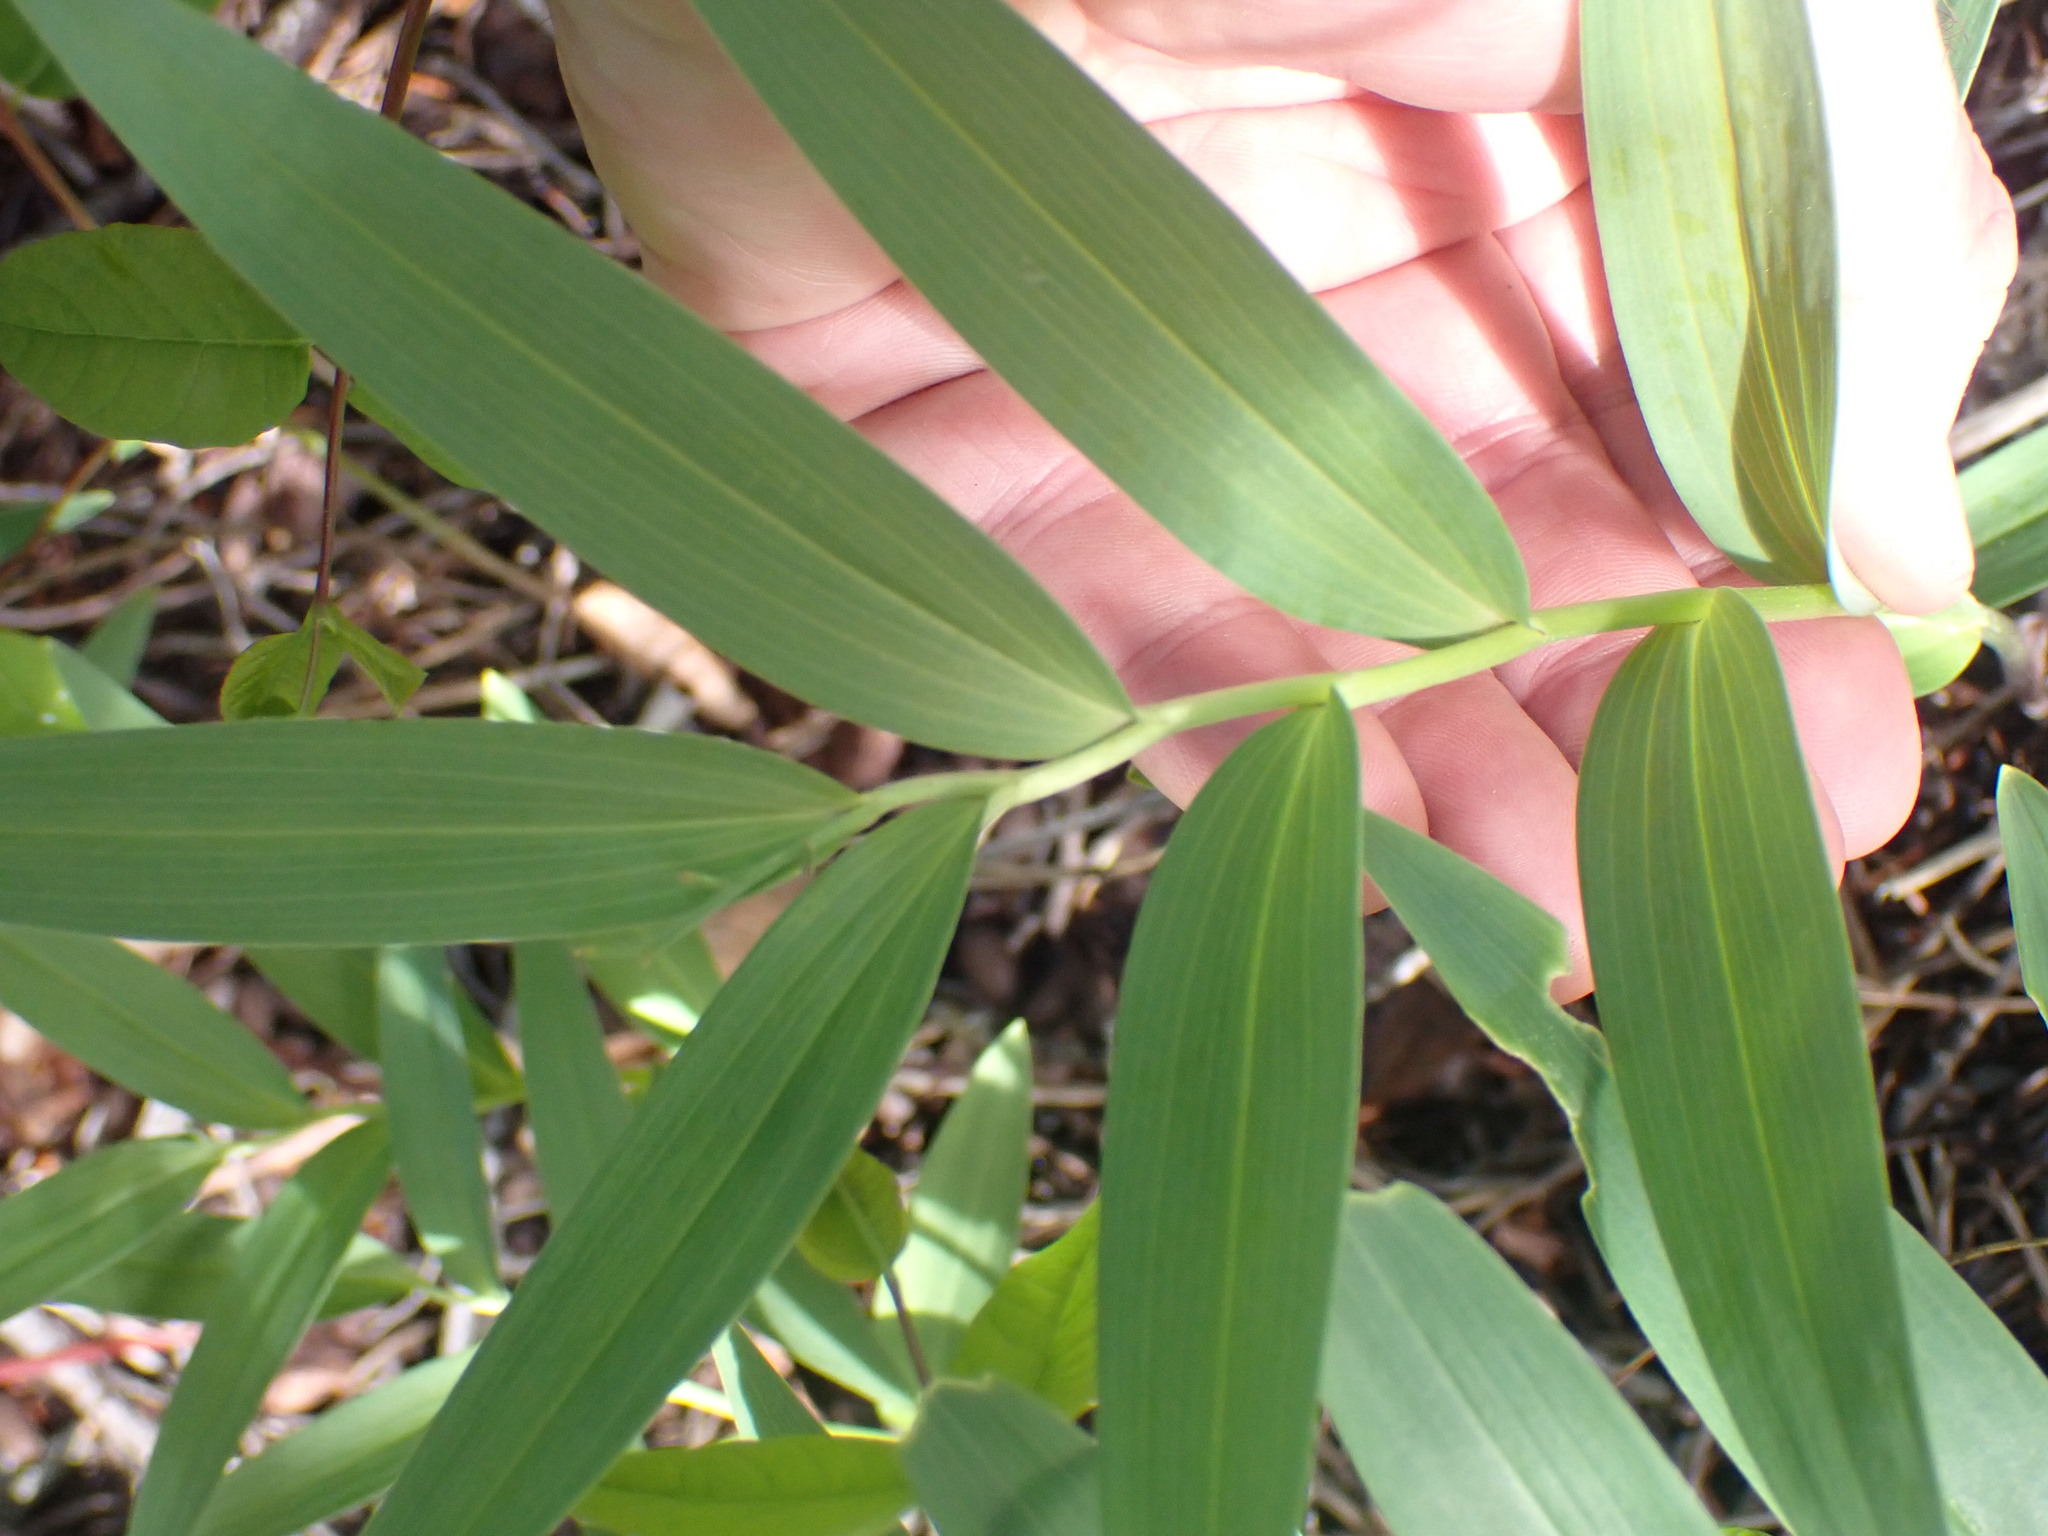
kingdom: Plantae
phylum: Tracheophyta
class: Liliopsida
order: Asparagales
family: Asparagaceae
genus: Maianthemum
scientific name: Maianthemum stellatum
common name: Little false solomon's seal
